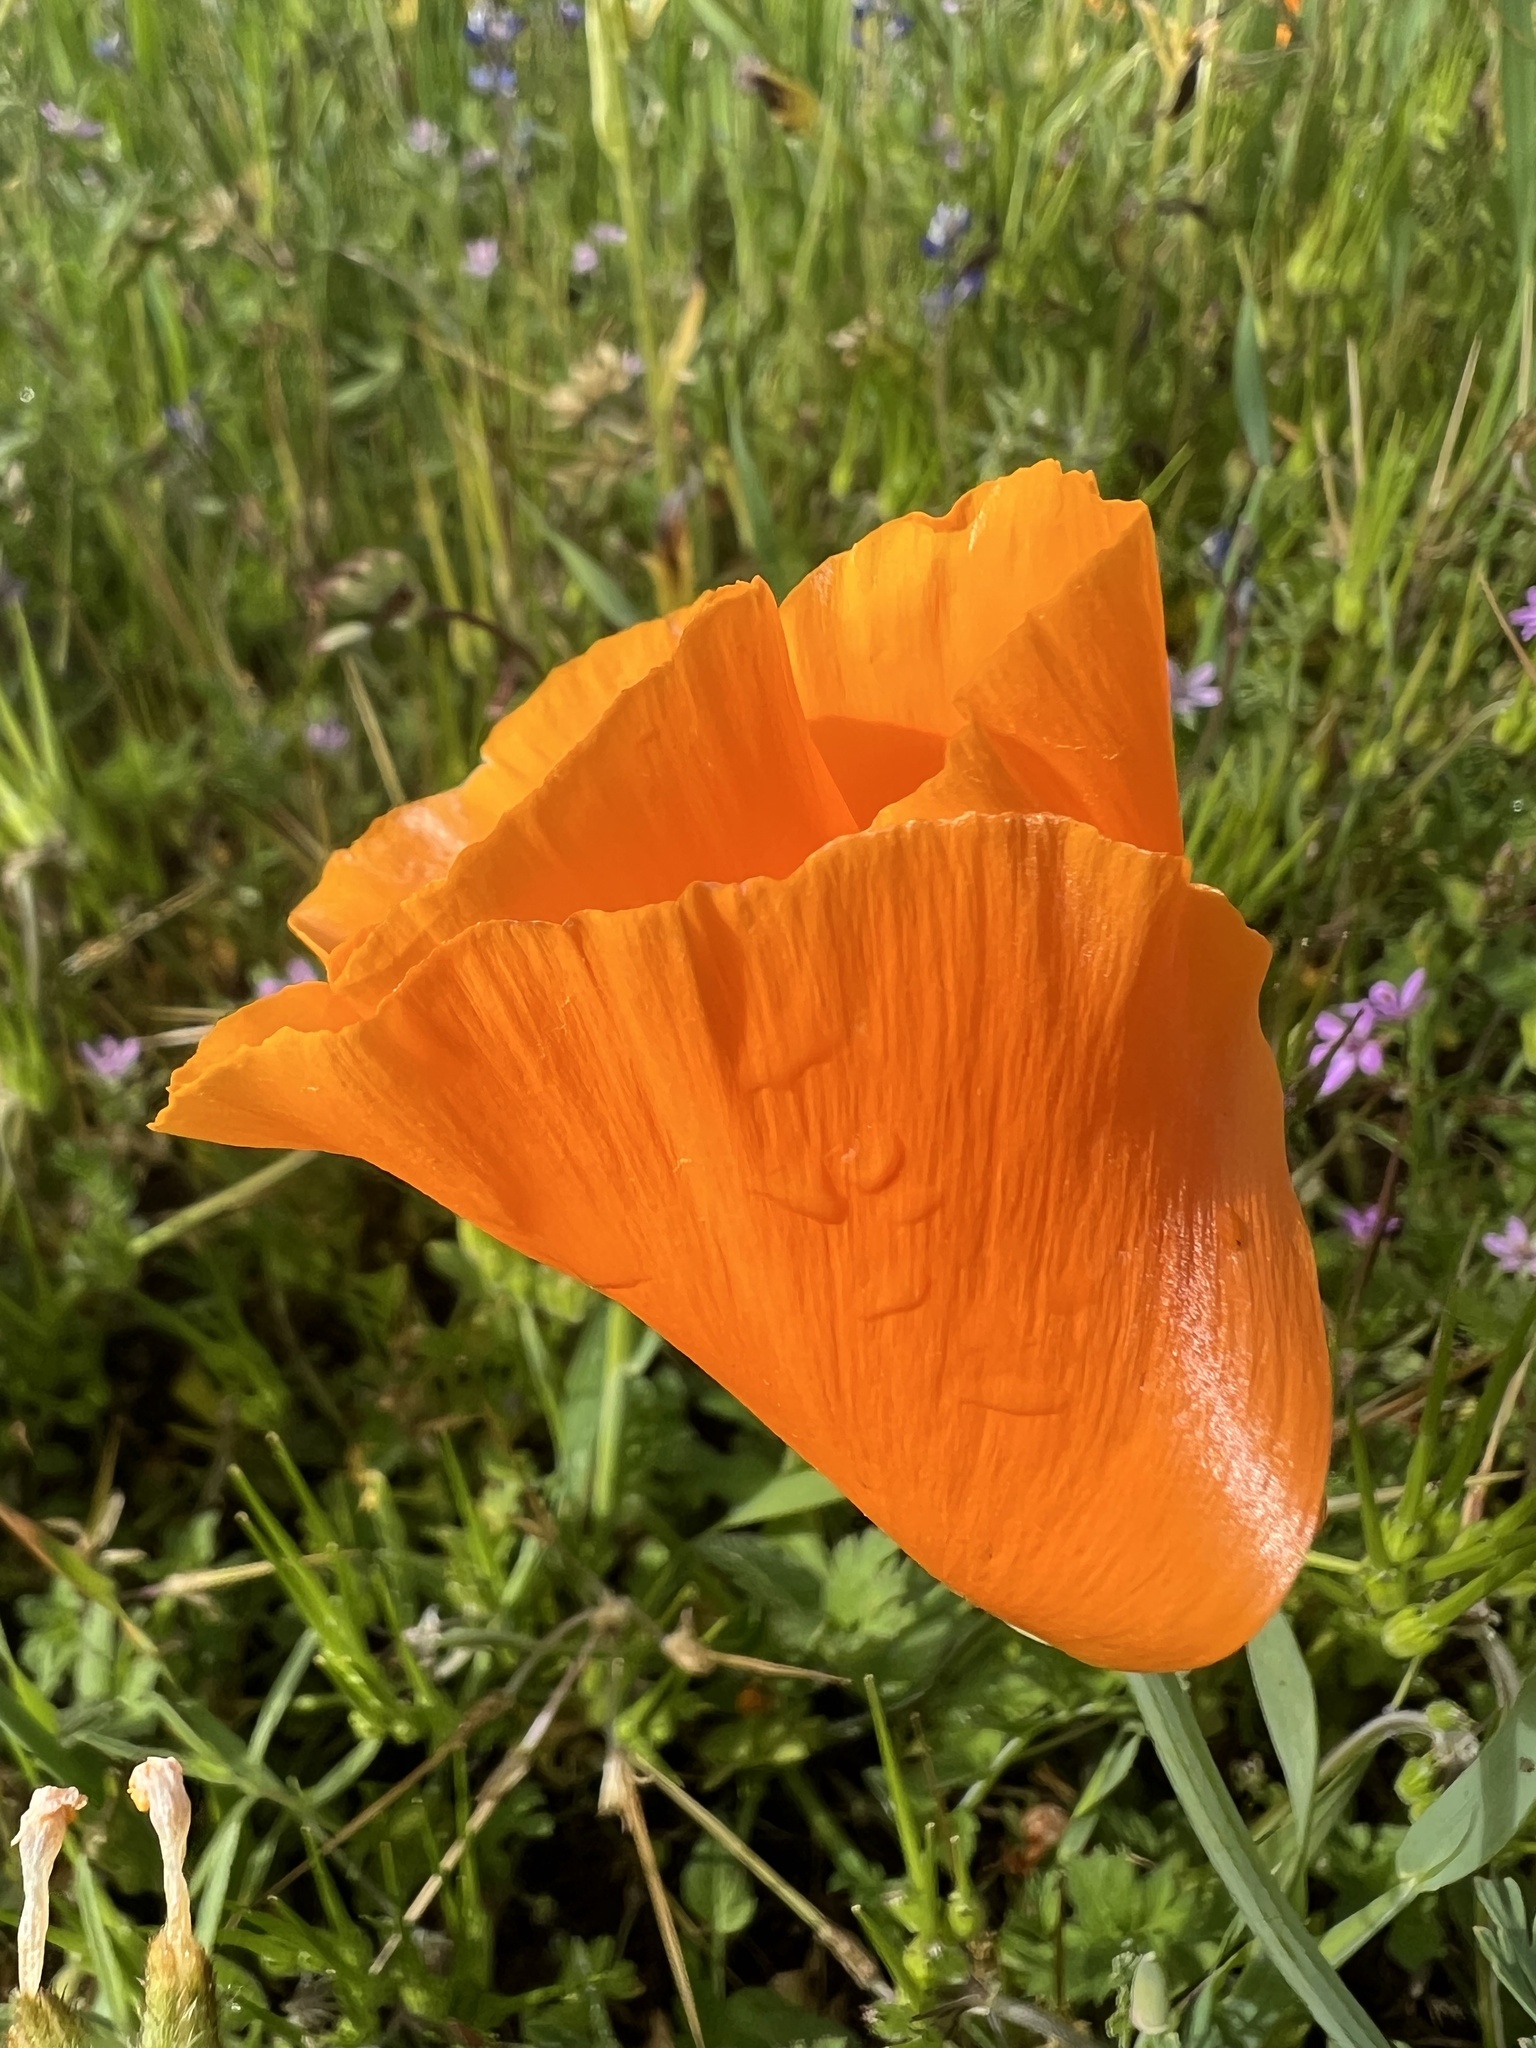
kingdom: Plantae
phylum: Tracheophyta
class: Magnoliopsida
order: Ranunculales
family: Papaveraceae
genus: Eschscholzia
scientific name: Eschscholzia californica
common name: California poppy
